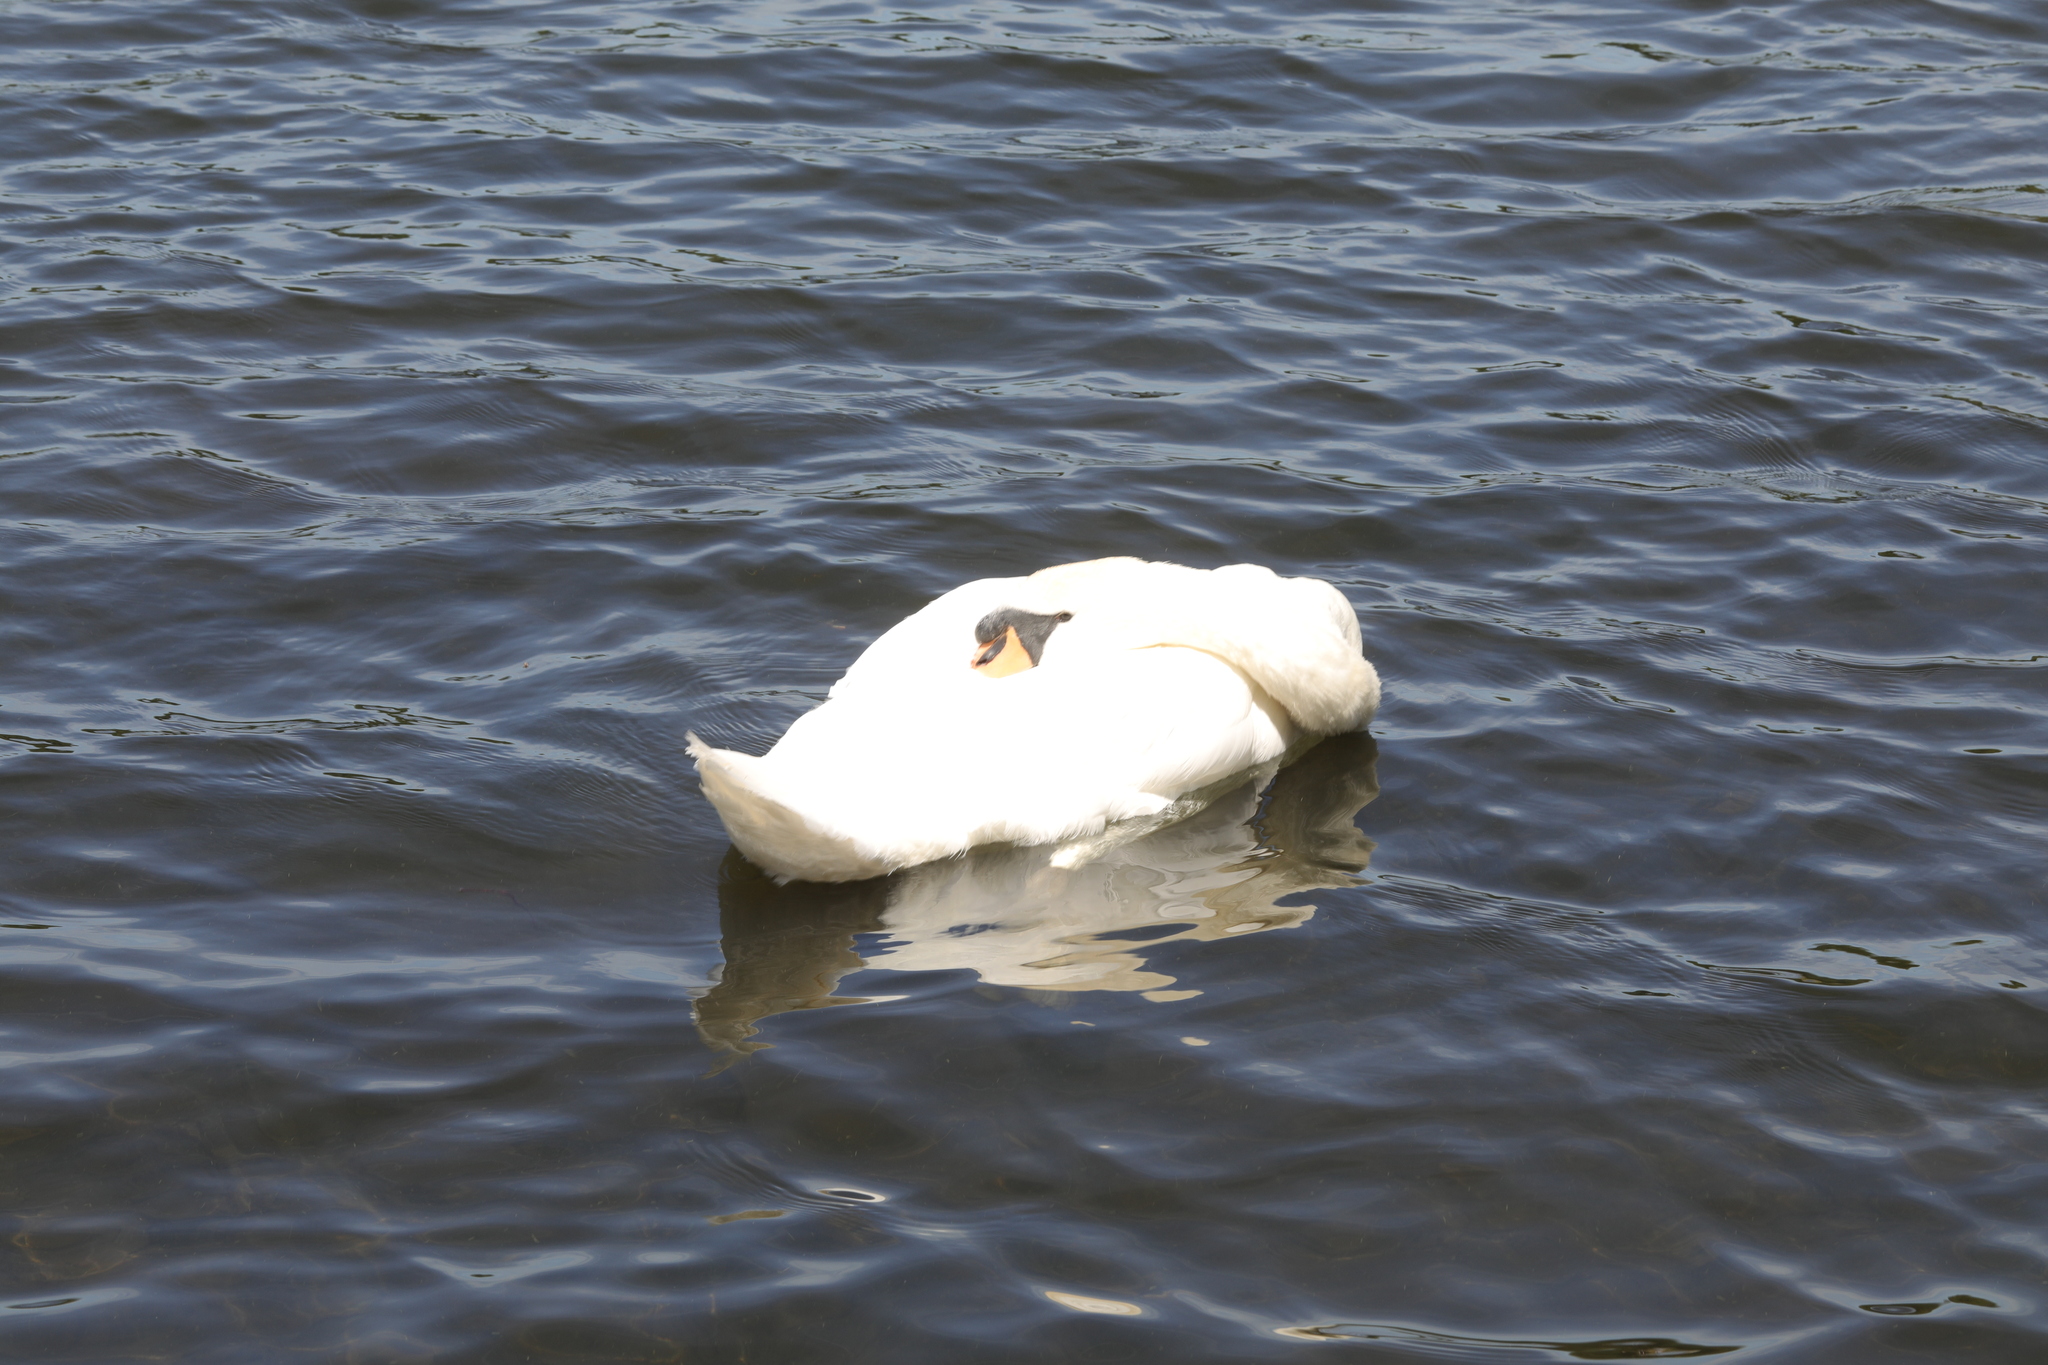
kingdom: Animalia
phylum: Chordata
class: Aves
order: Anseriformes
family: Anatidae
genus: Cygnus
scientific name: Cygnus olor
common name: Mute swan
